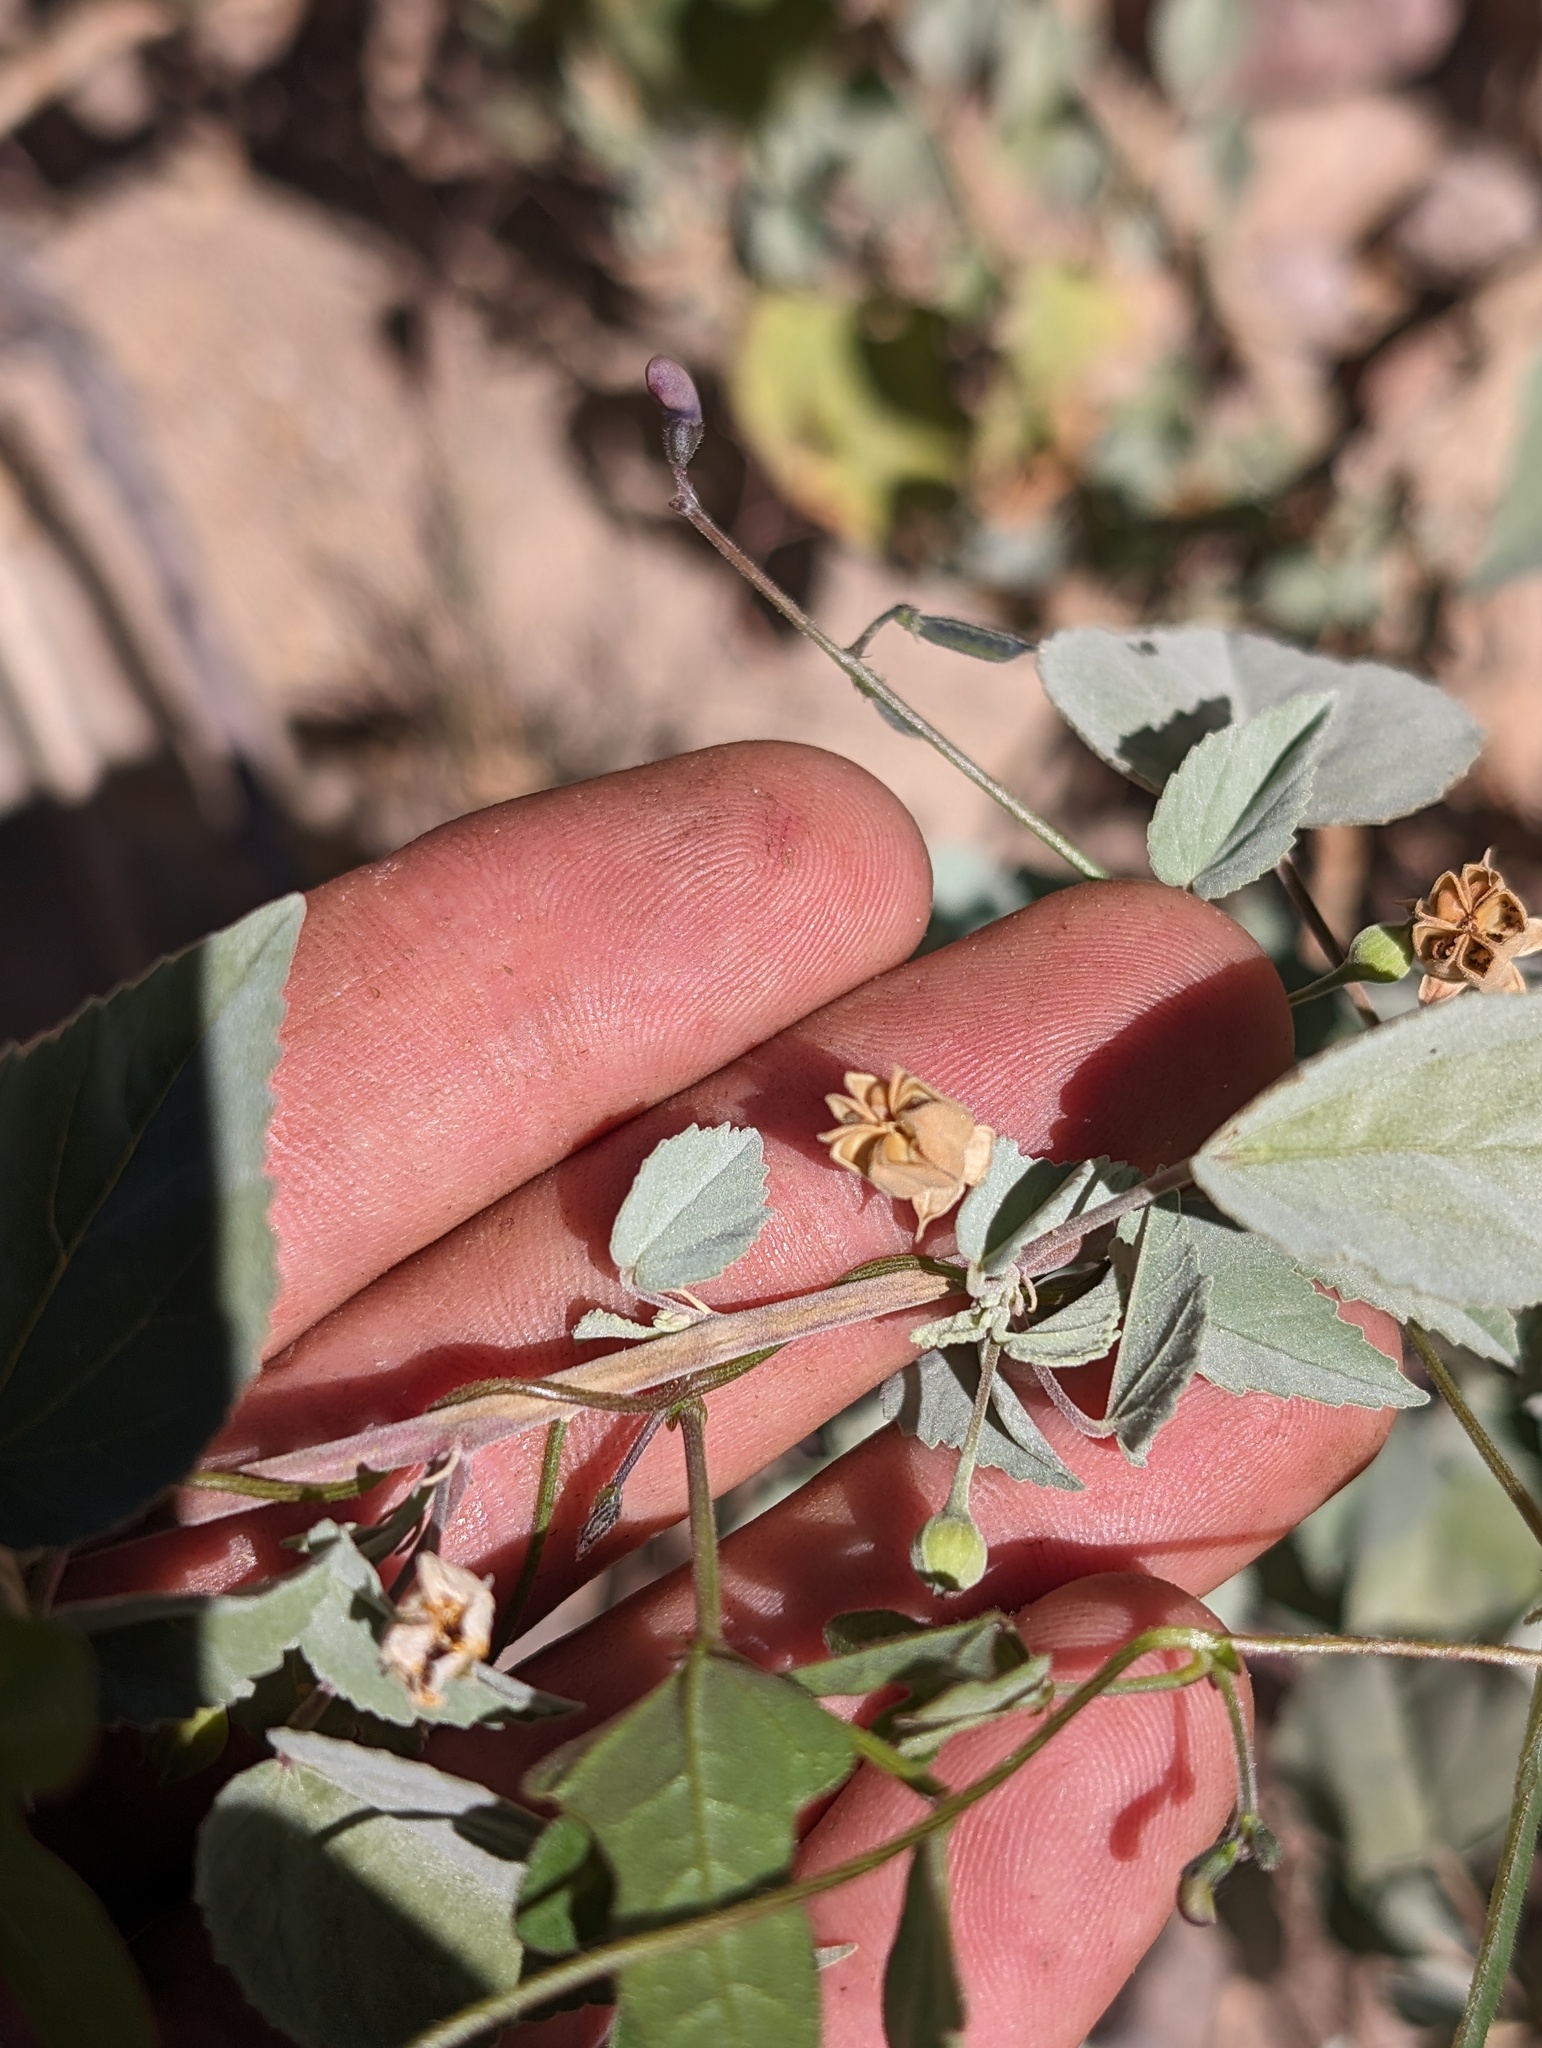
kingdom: Plantae
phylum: Tracheophyta
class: Magnoliopsida
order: Malvales
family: Malvaceae
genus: Abutilon
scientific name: Abutilon incanum
